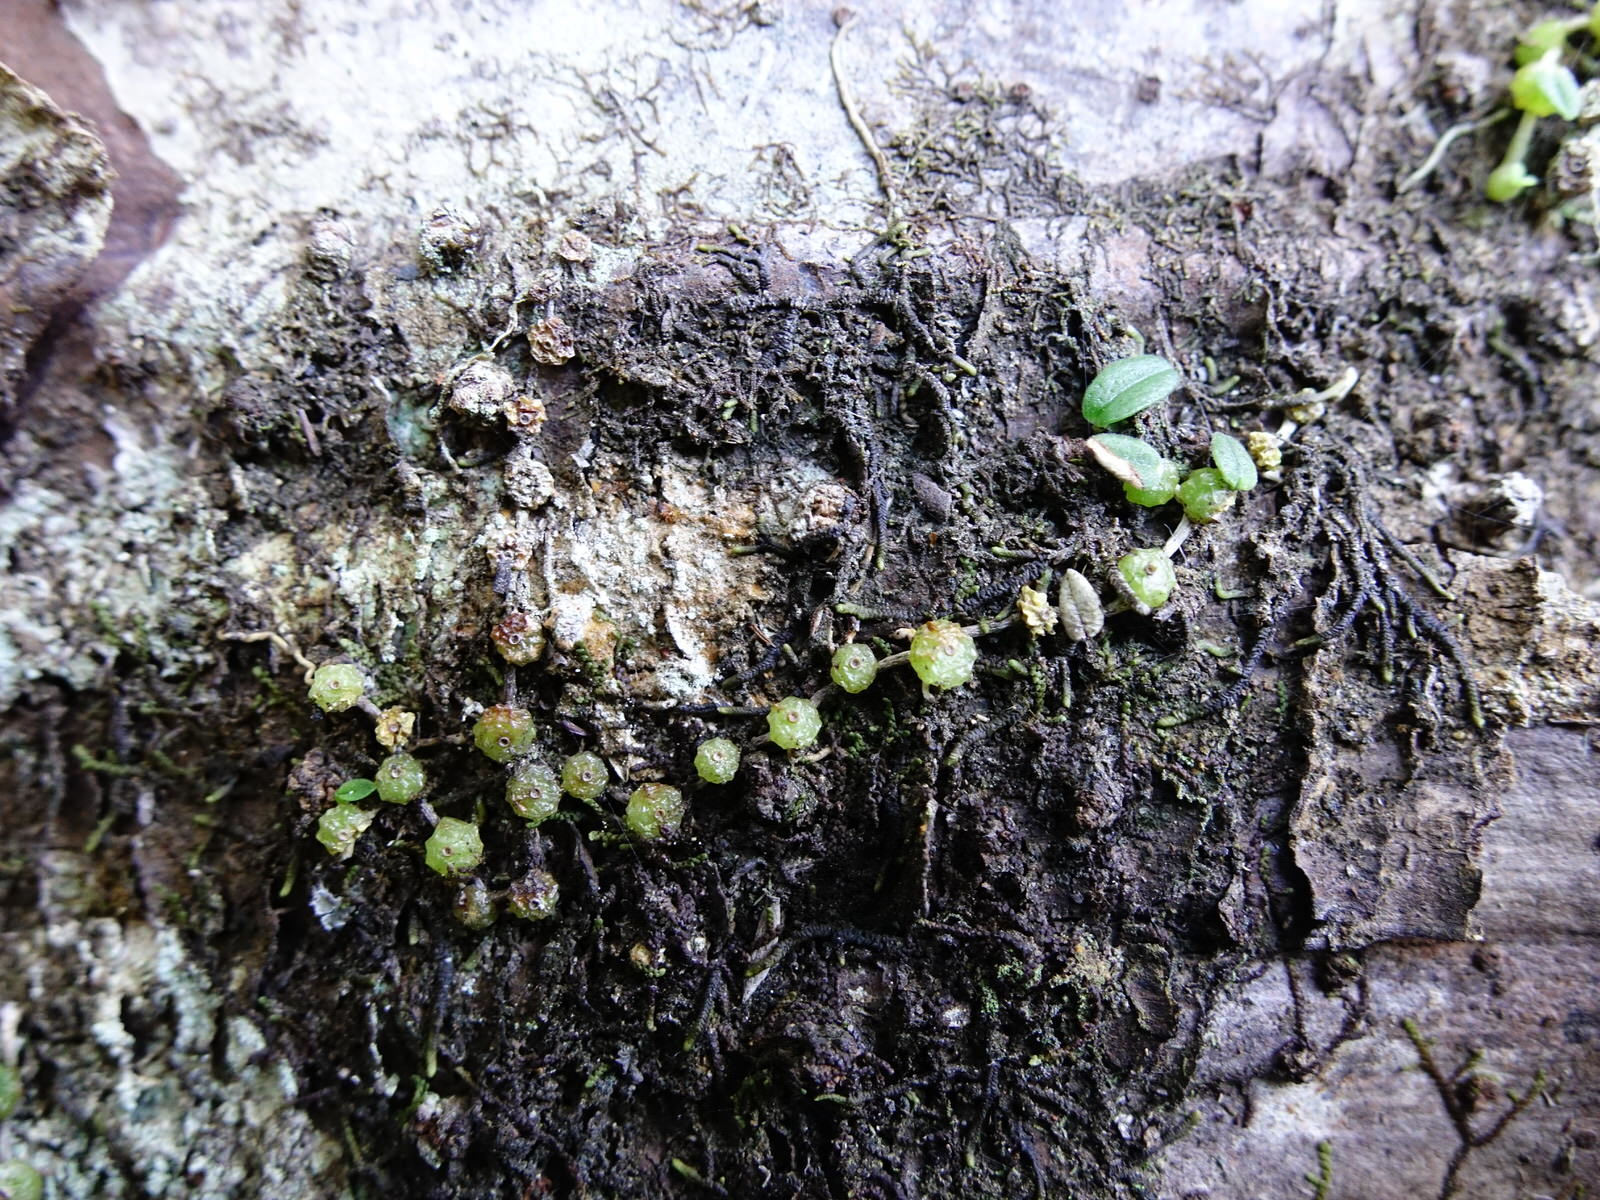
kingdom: Plantae
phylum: Tracheophyta
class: Liliopsida
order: Asparagales
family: Orchidaceae
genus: Bulbophyllum
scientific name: Bulbophyllum pygmaeum
